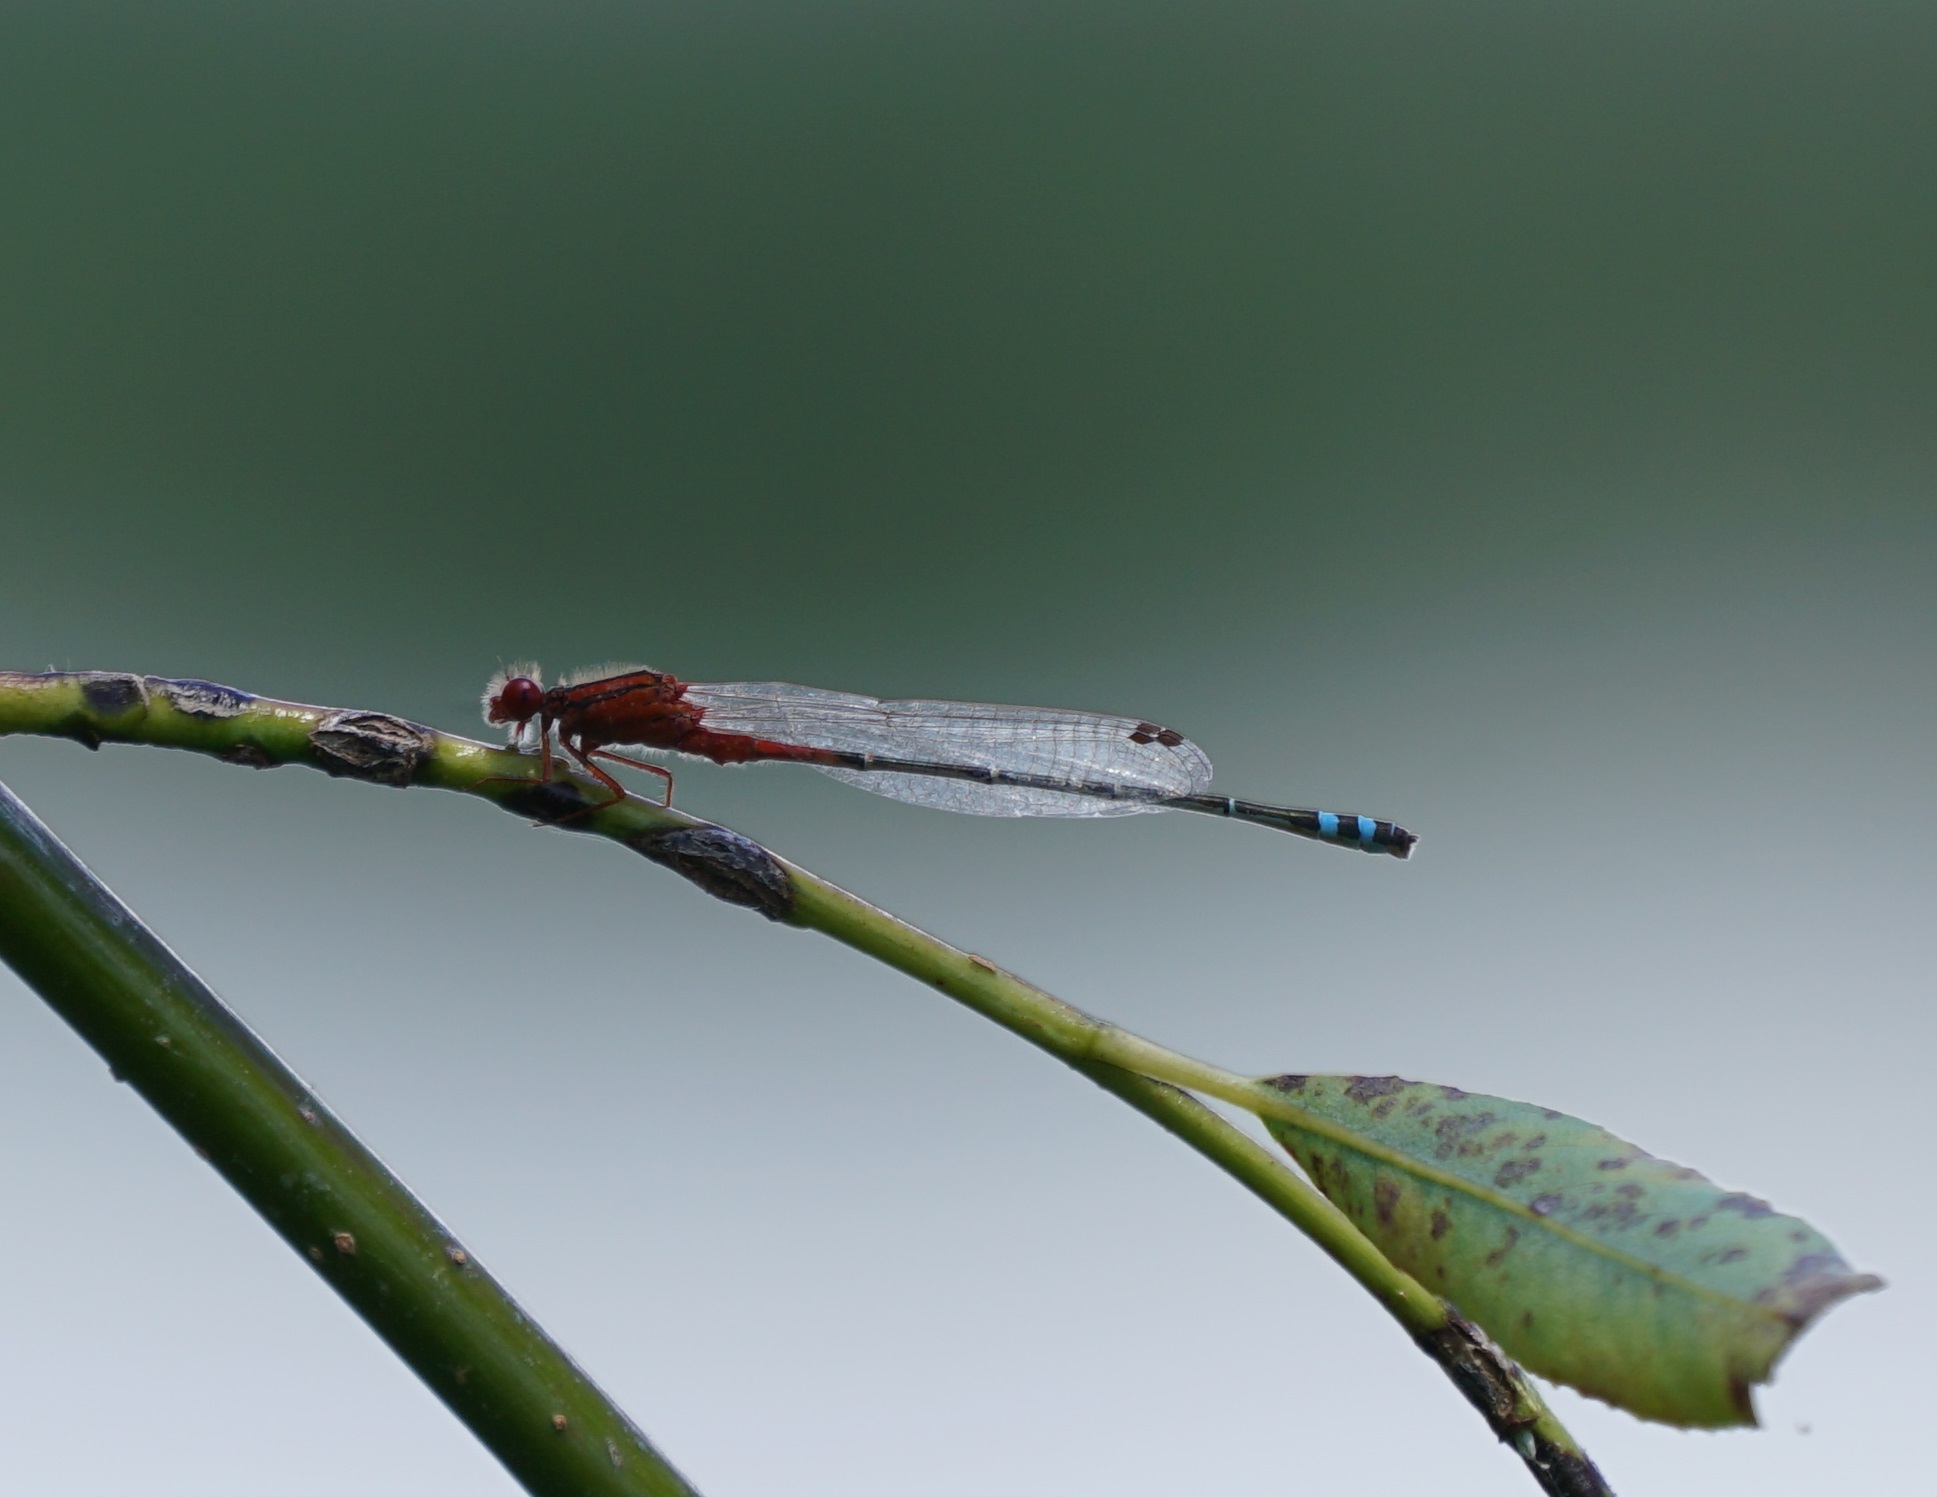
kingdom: Animalia
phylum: Arthropoda
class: Insecta
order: Odonata
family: Coenagrionidae
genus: Xanthagrion
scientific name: Xanthagrion erythroneurum
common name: Red and blue damsel
